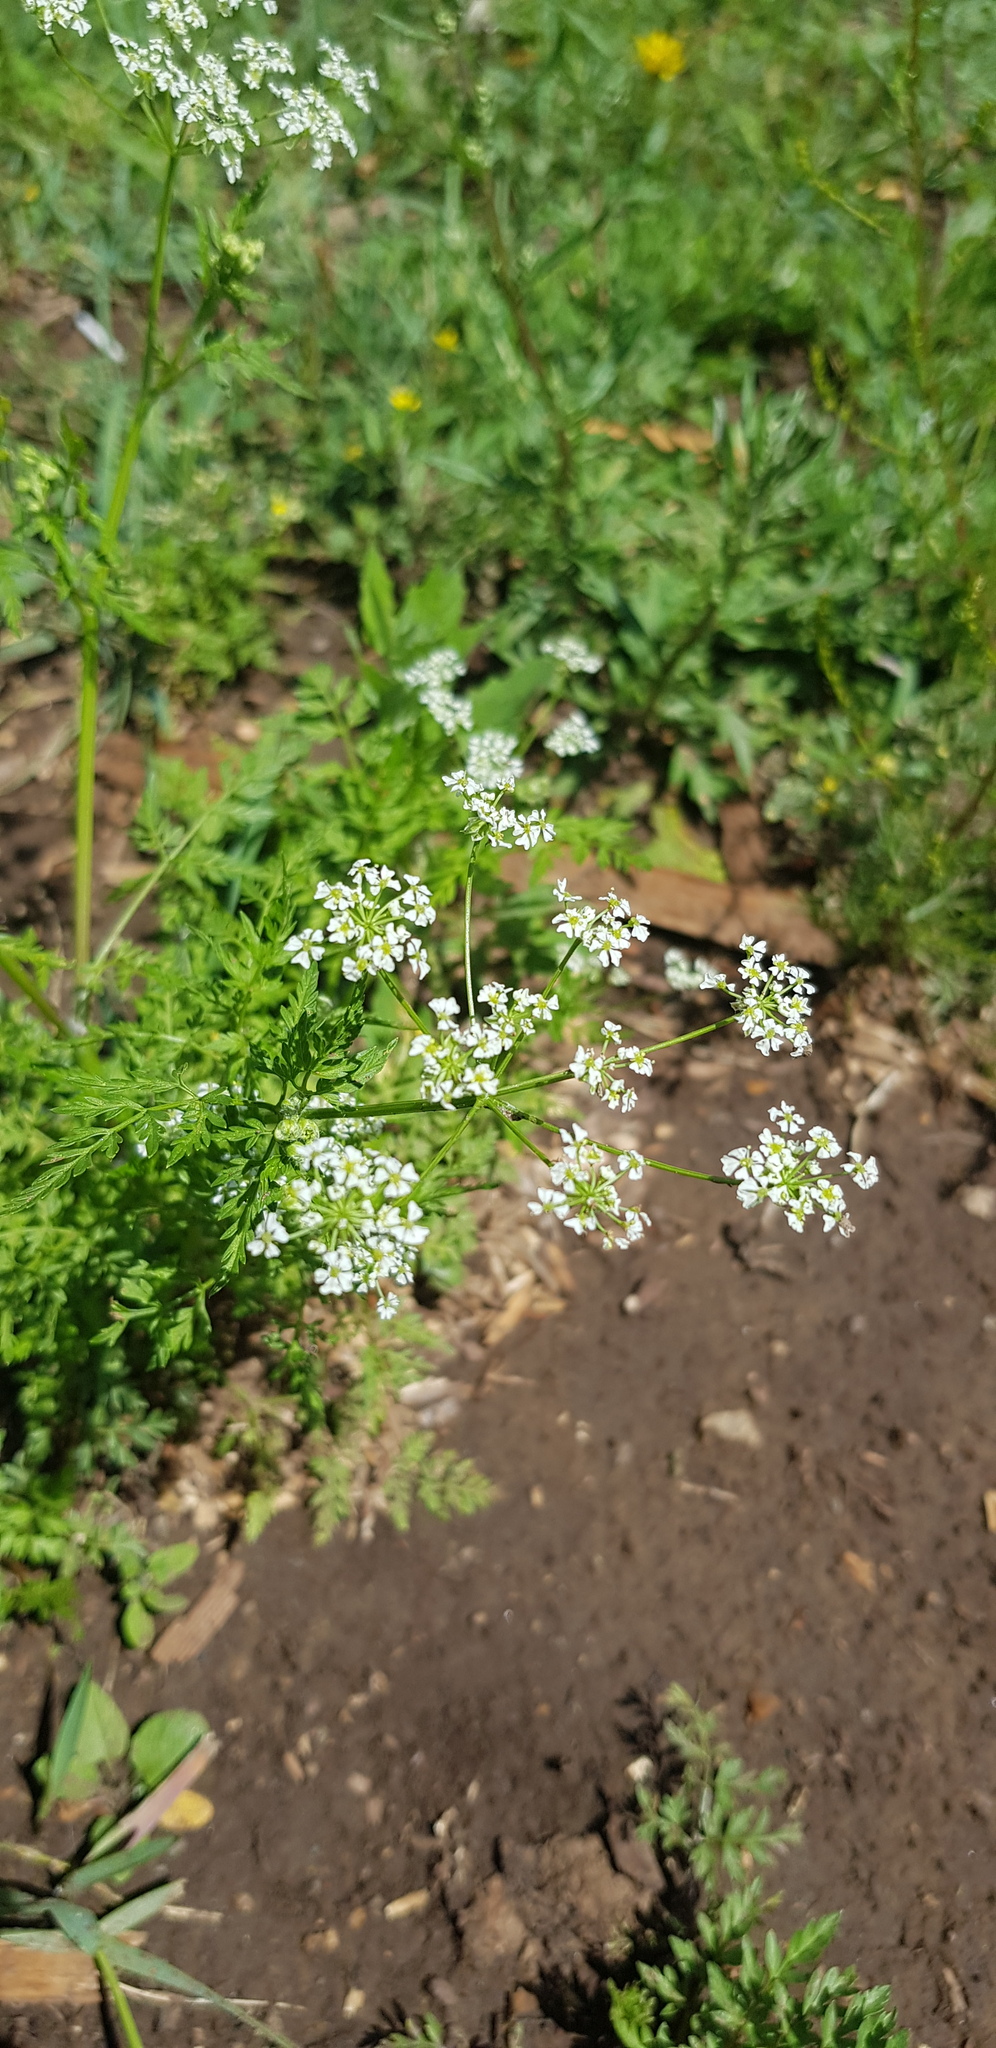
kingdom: Plantae
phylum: Tracheophyta
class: Magnoliopsida
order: Apiales
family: Apiaceae
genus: Sphallerocarpus
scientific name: Sphallerocarpus gracilis
